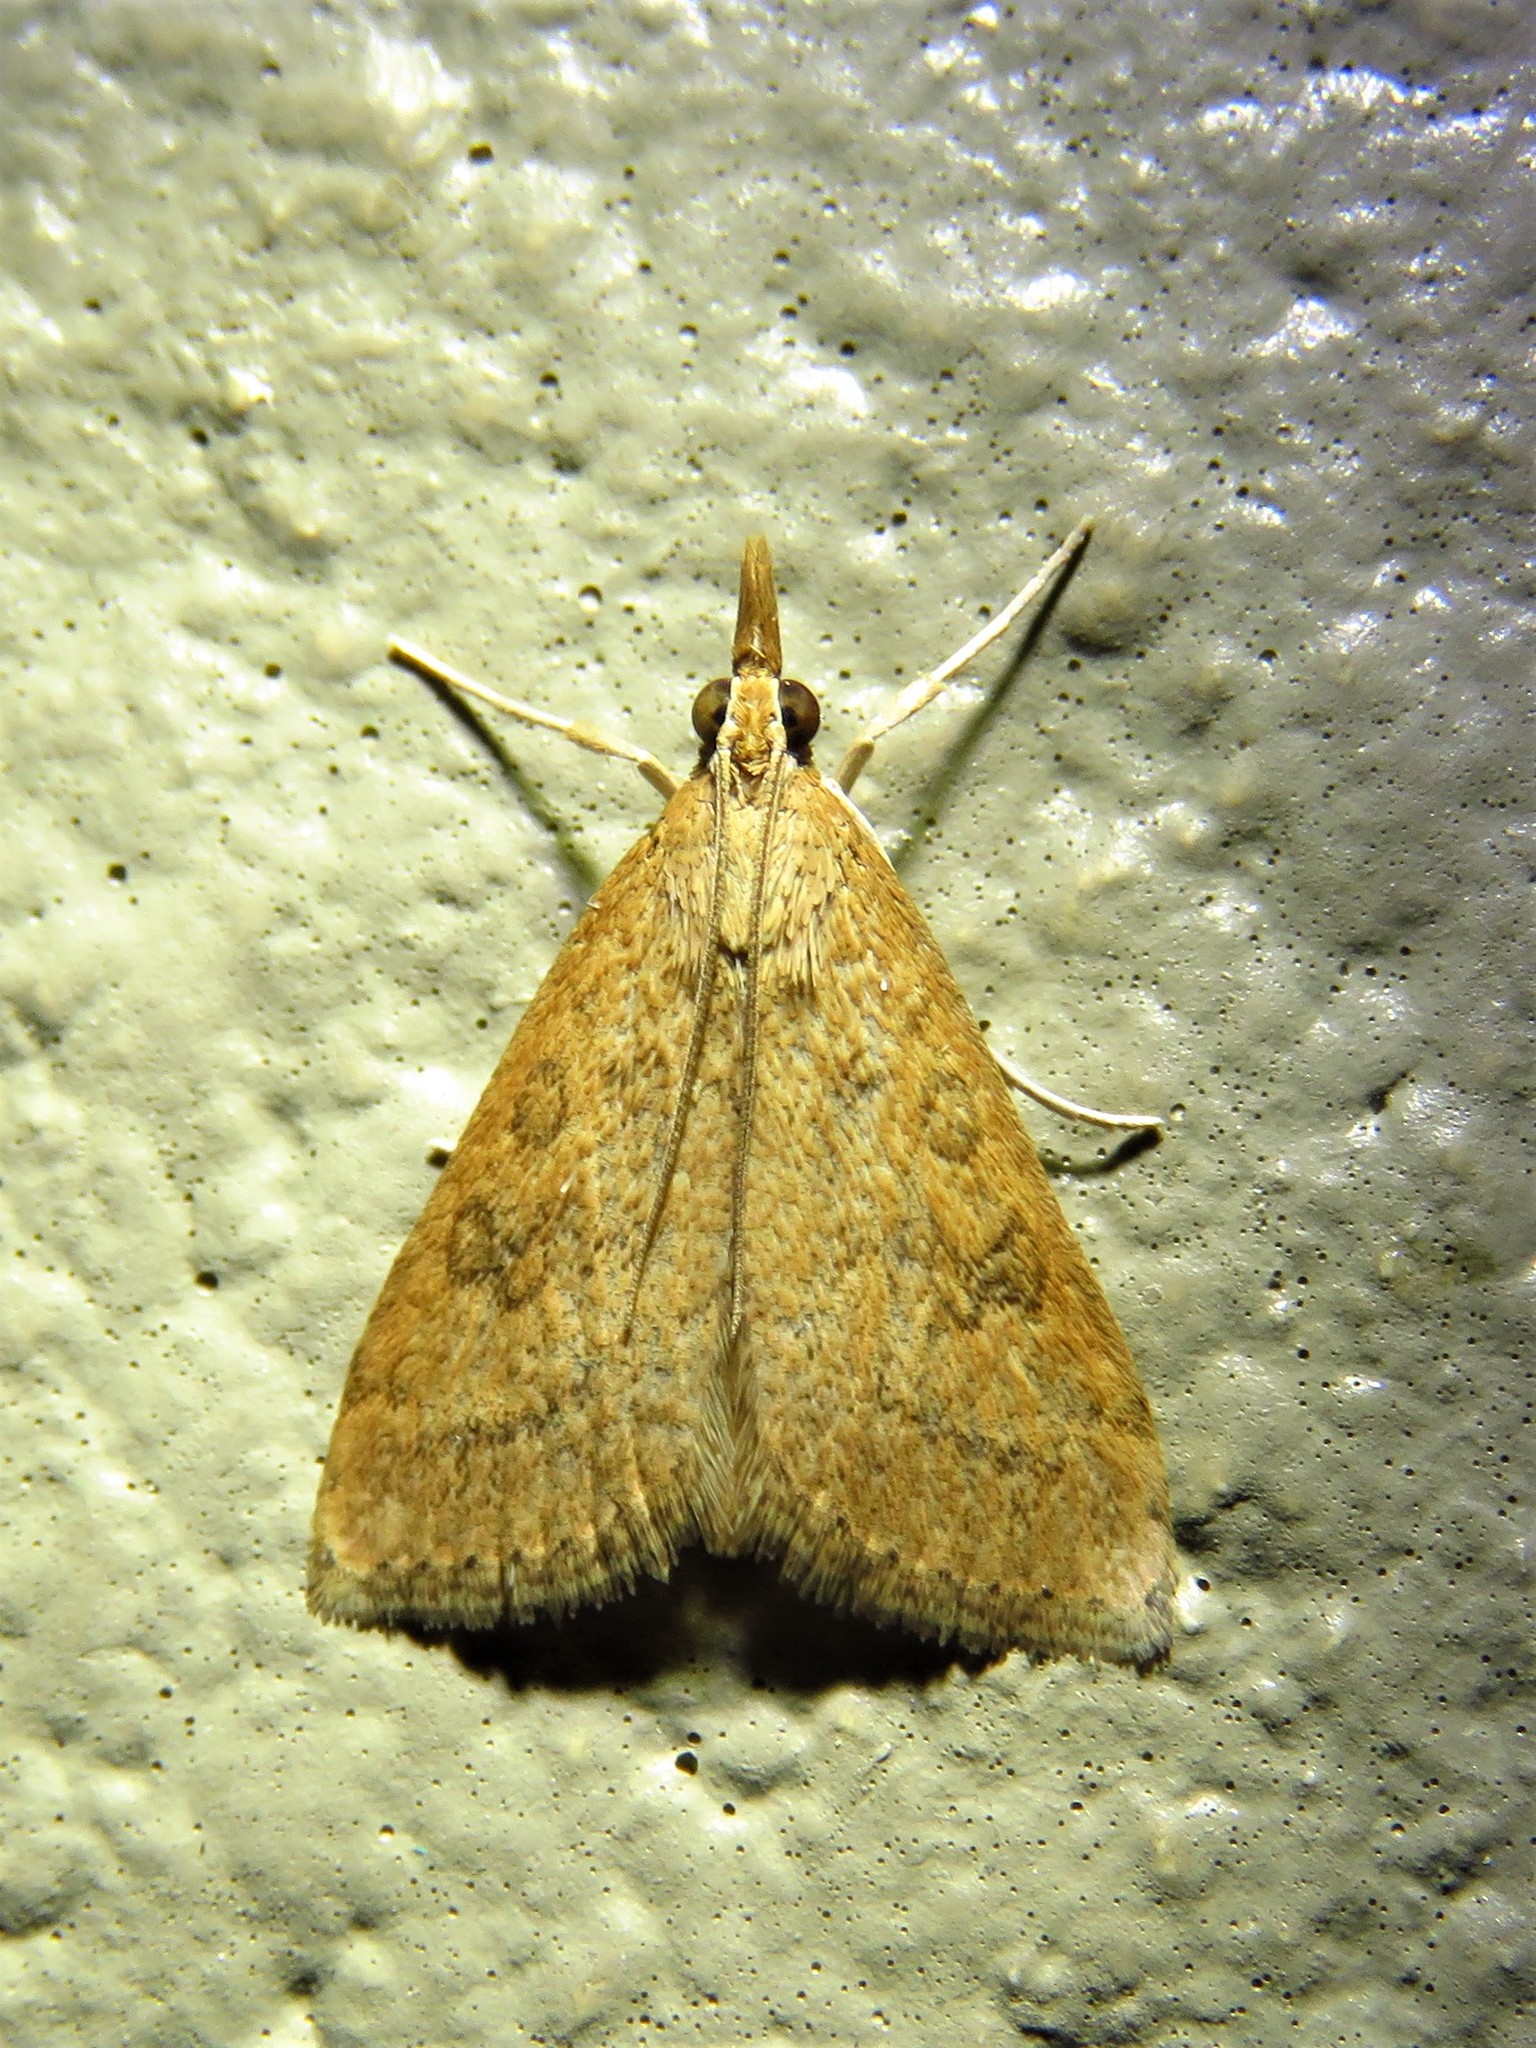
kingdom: Animalia
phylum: Arthropoda
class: Insecta
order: Lepidoptera
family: Crambidae
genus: Udea
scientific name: Udea rubigalis
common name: Celery leaftier moth
